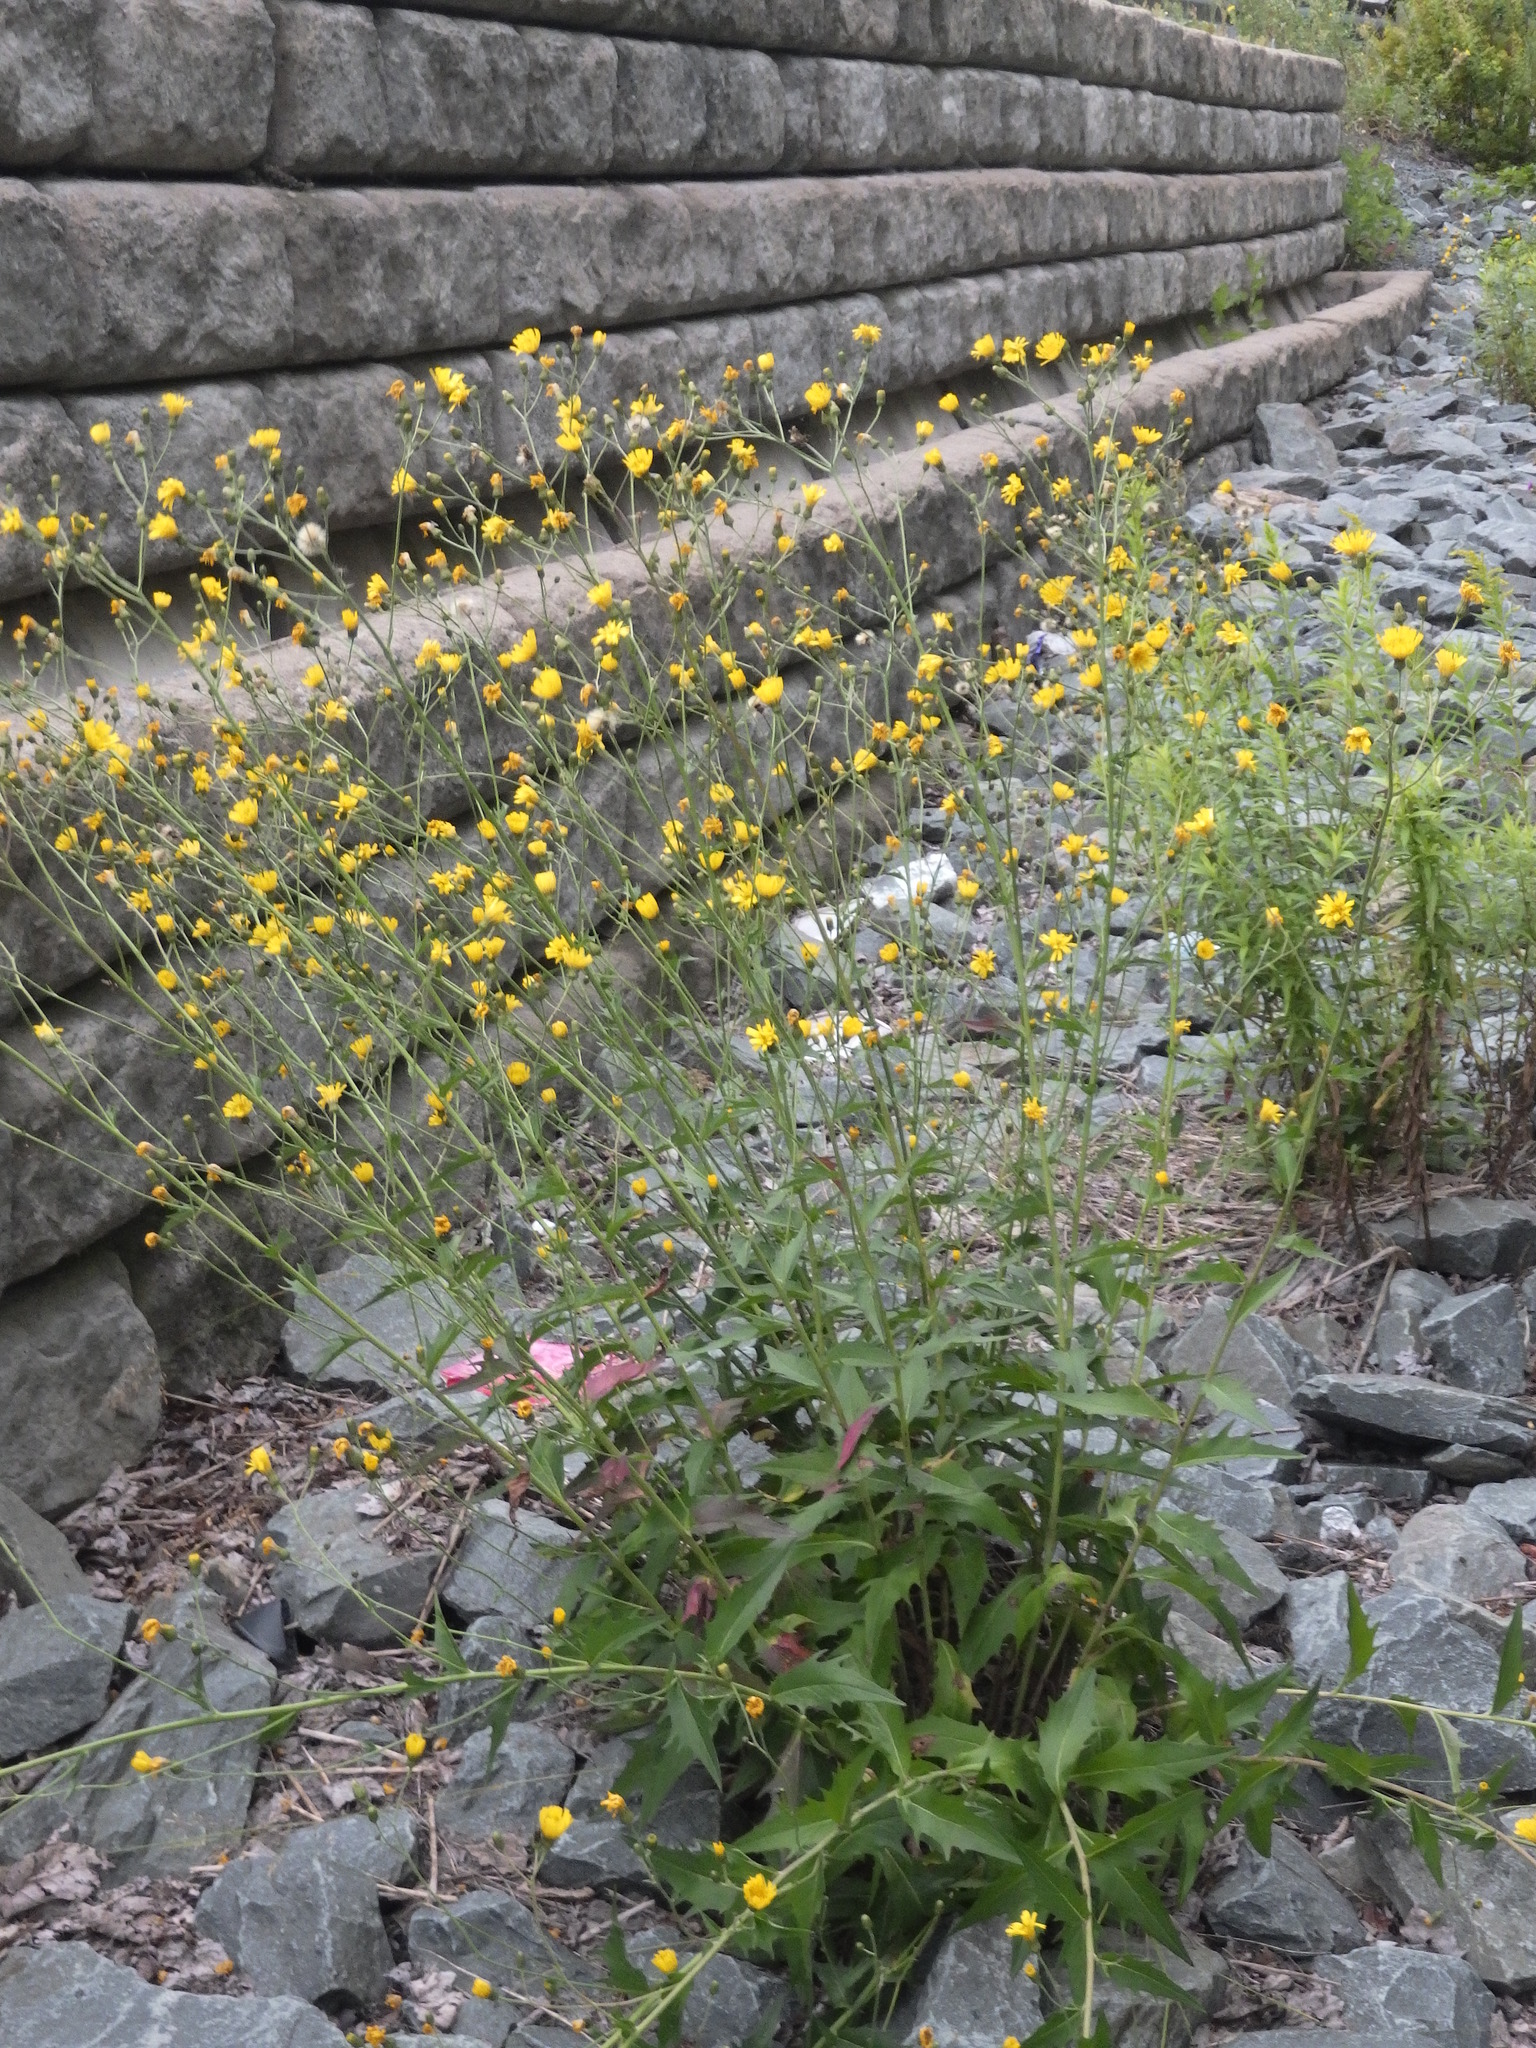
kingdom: Plantae
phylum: Tracheophyta
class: Magnoliopsida
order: Asterales
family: Asteraceae
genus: Hieracium
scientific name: Hieracium umbellatum
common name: Northern hawkweed
